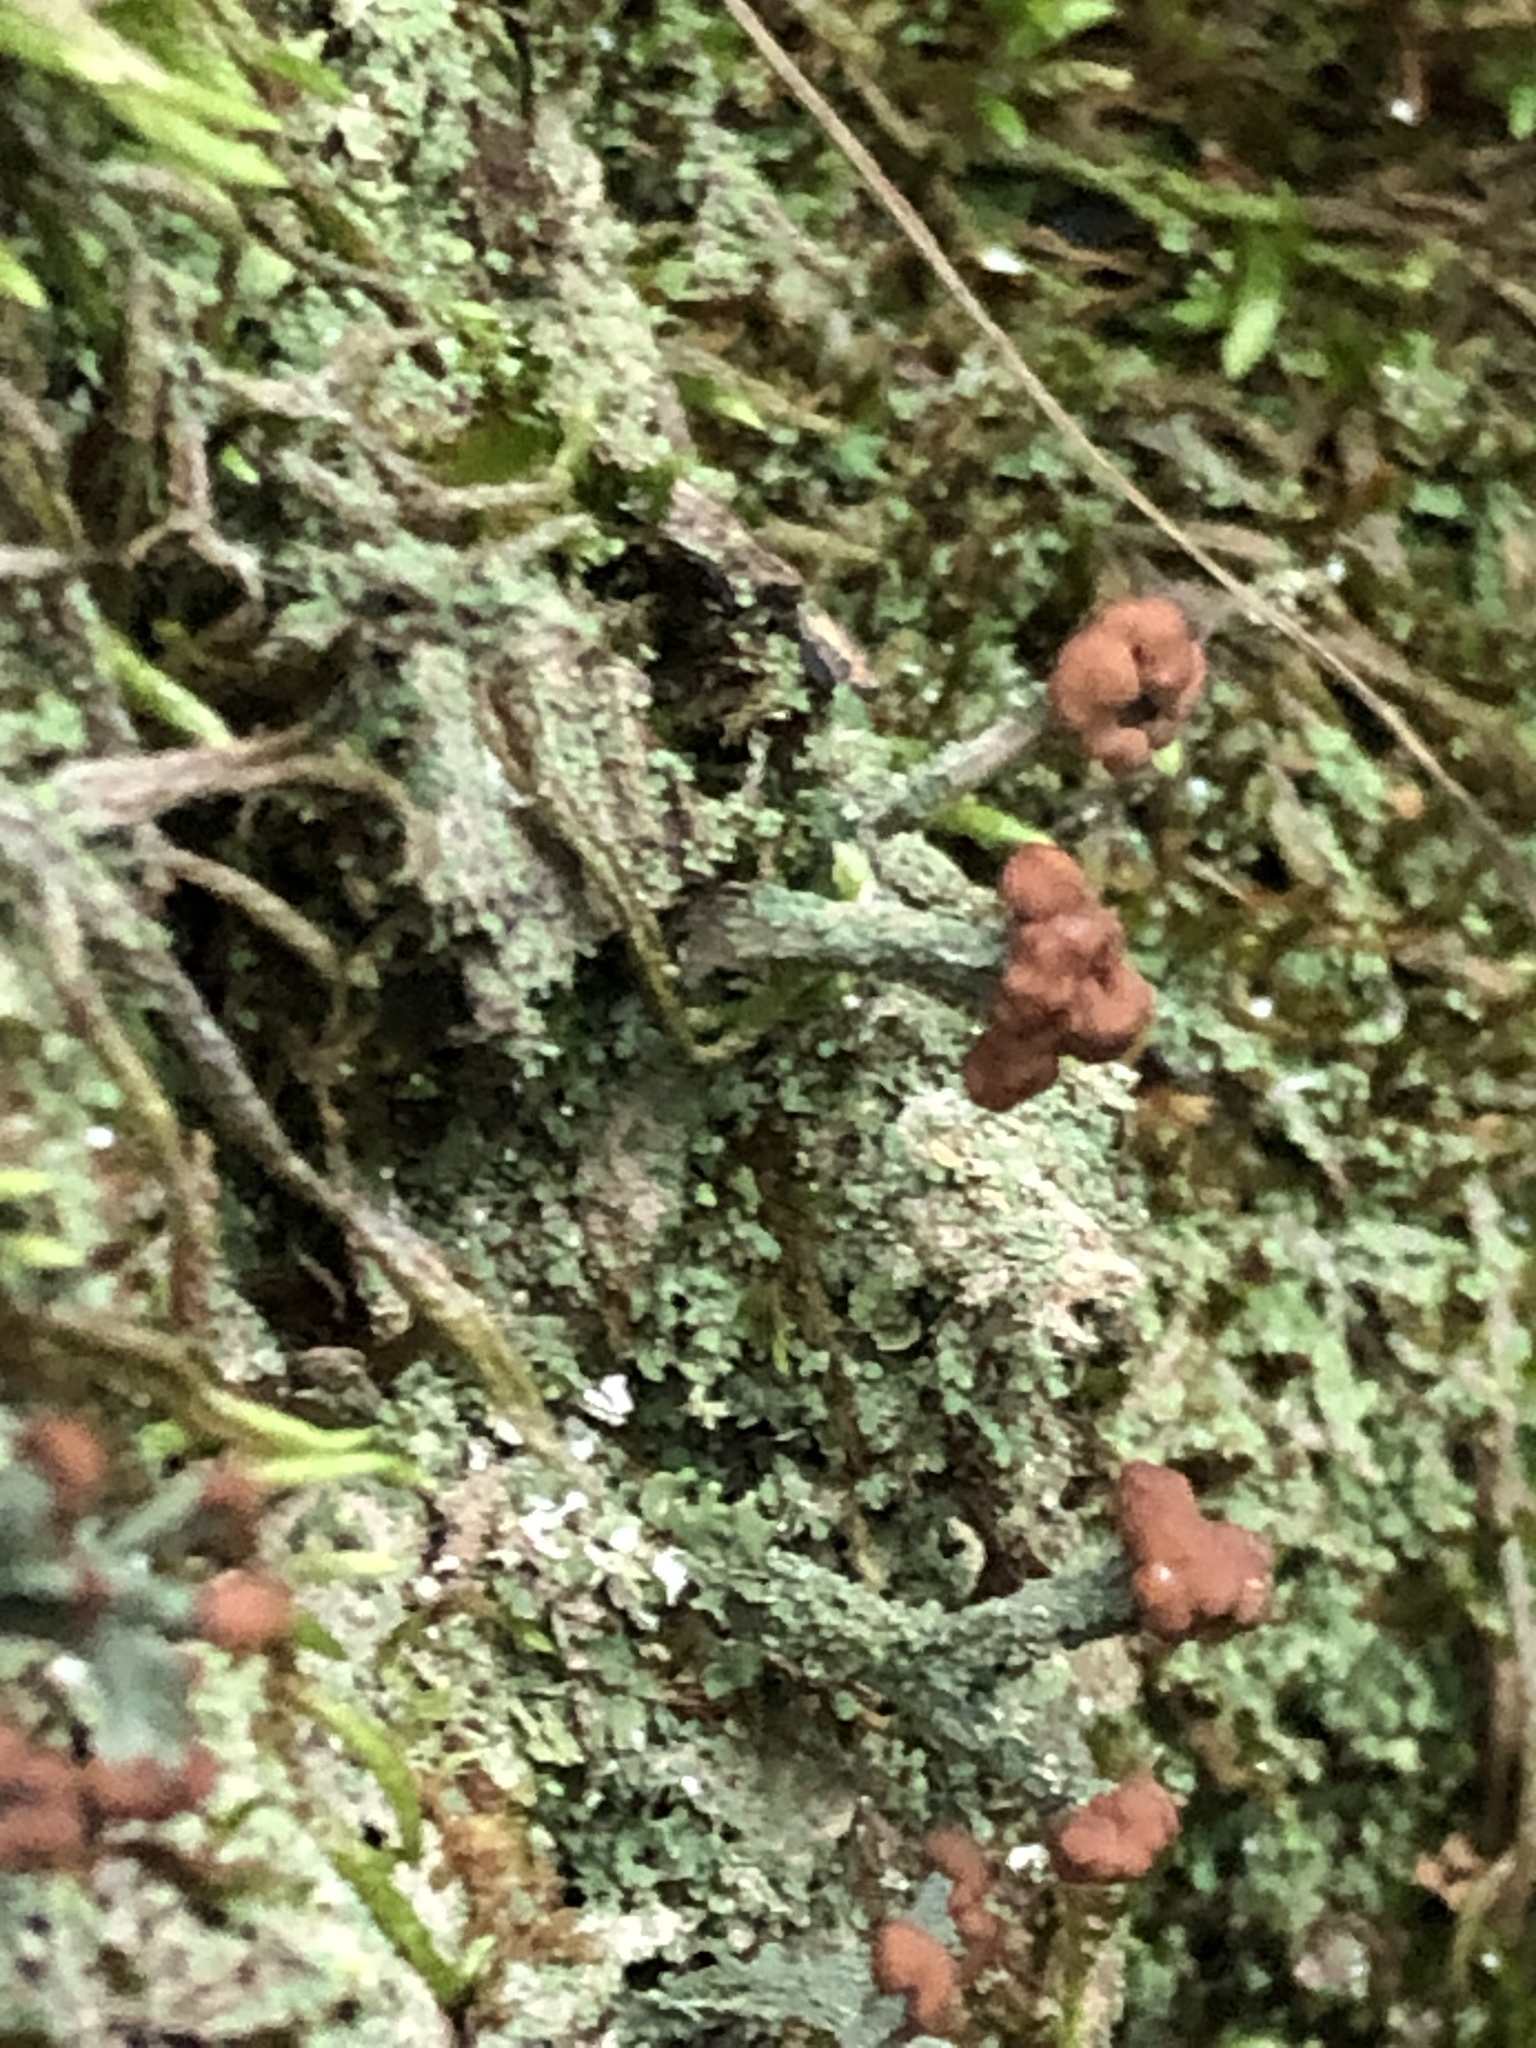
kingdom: Fungi
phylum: Ascomycota
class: Lecanoromycetes
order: Lecanorales
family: Cladoniaceae
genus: Cladonia
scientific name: Cladonia macilenta
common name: Lipstick powderhorn
